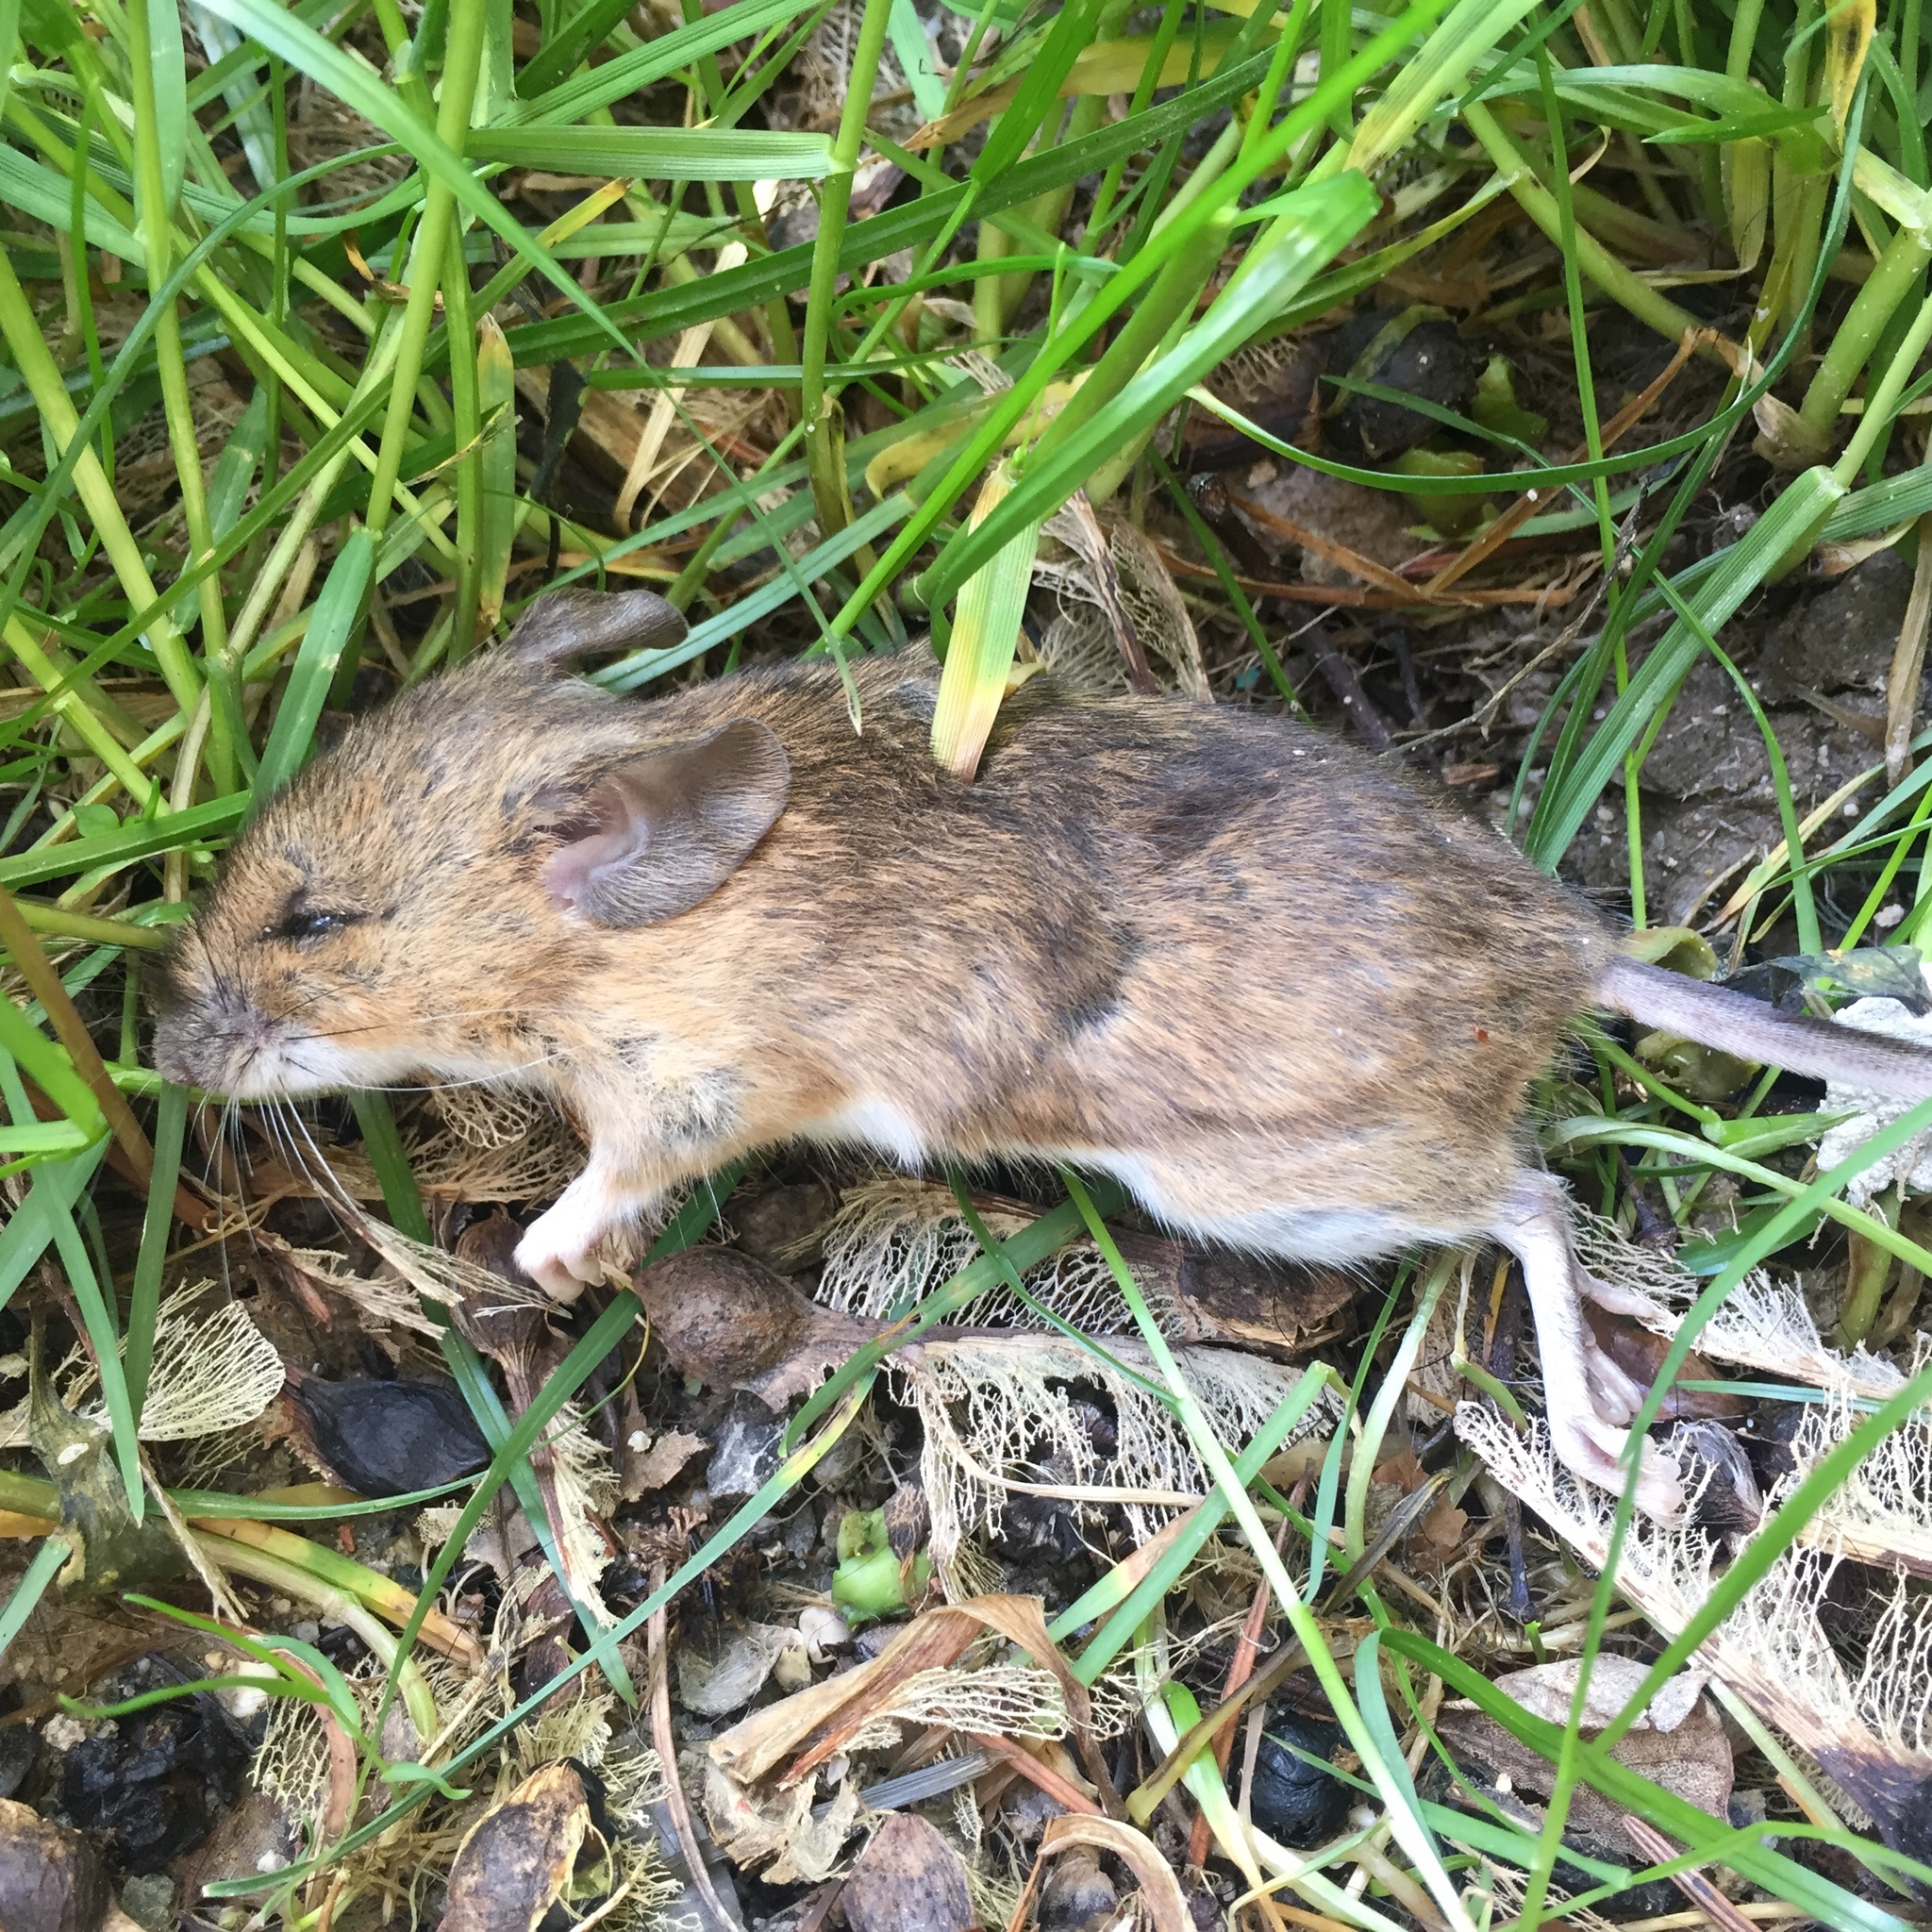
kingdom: Animalia
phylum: Chordata
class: Mammalia
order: Rodentia
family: Muridae
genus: Apodemus
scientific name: Apodemus sylvaticus
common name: Wood mouse
